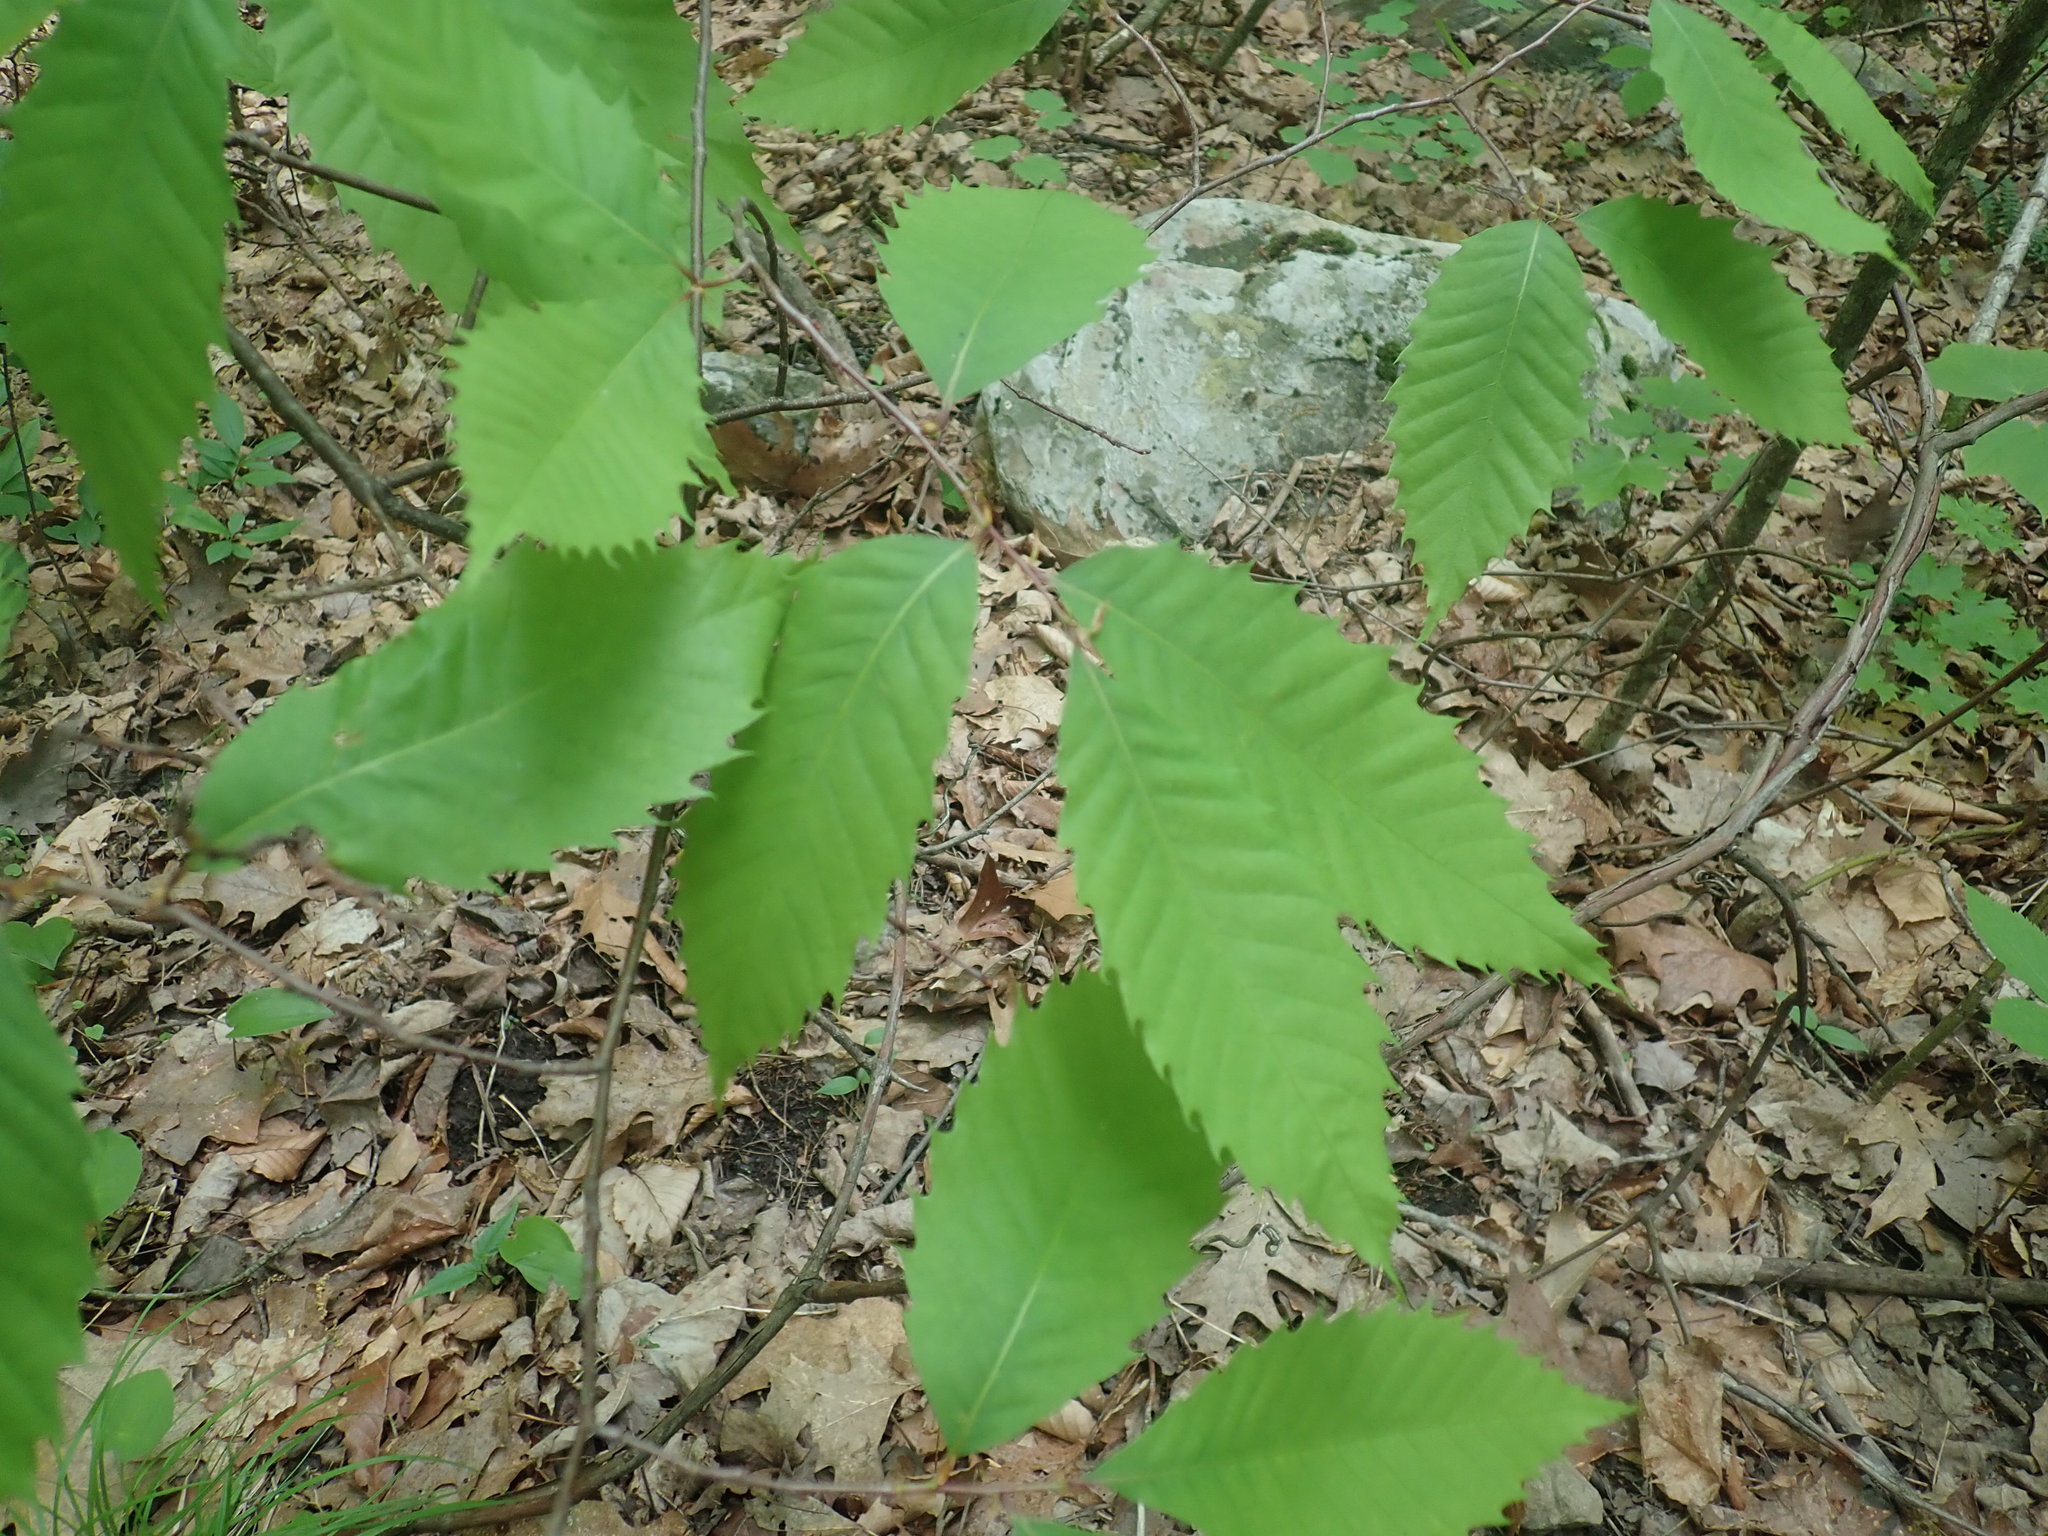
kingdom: Plantae
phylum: Tracheophyta
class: Magnoliopsida
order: Fagales
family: Fagaceae
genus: Castanea
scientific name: Castanea dentata
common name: American chestnut
